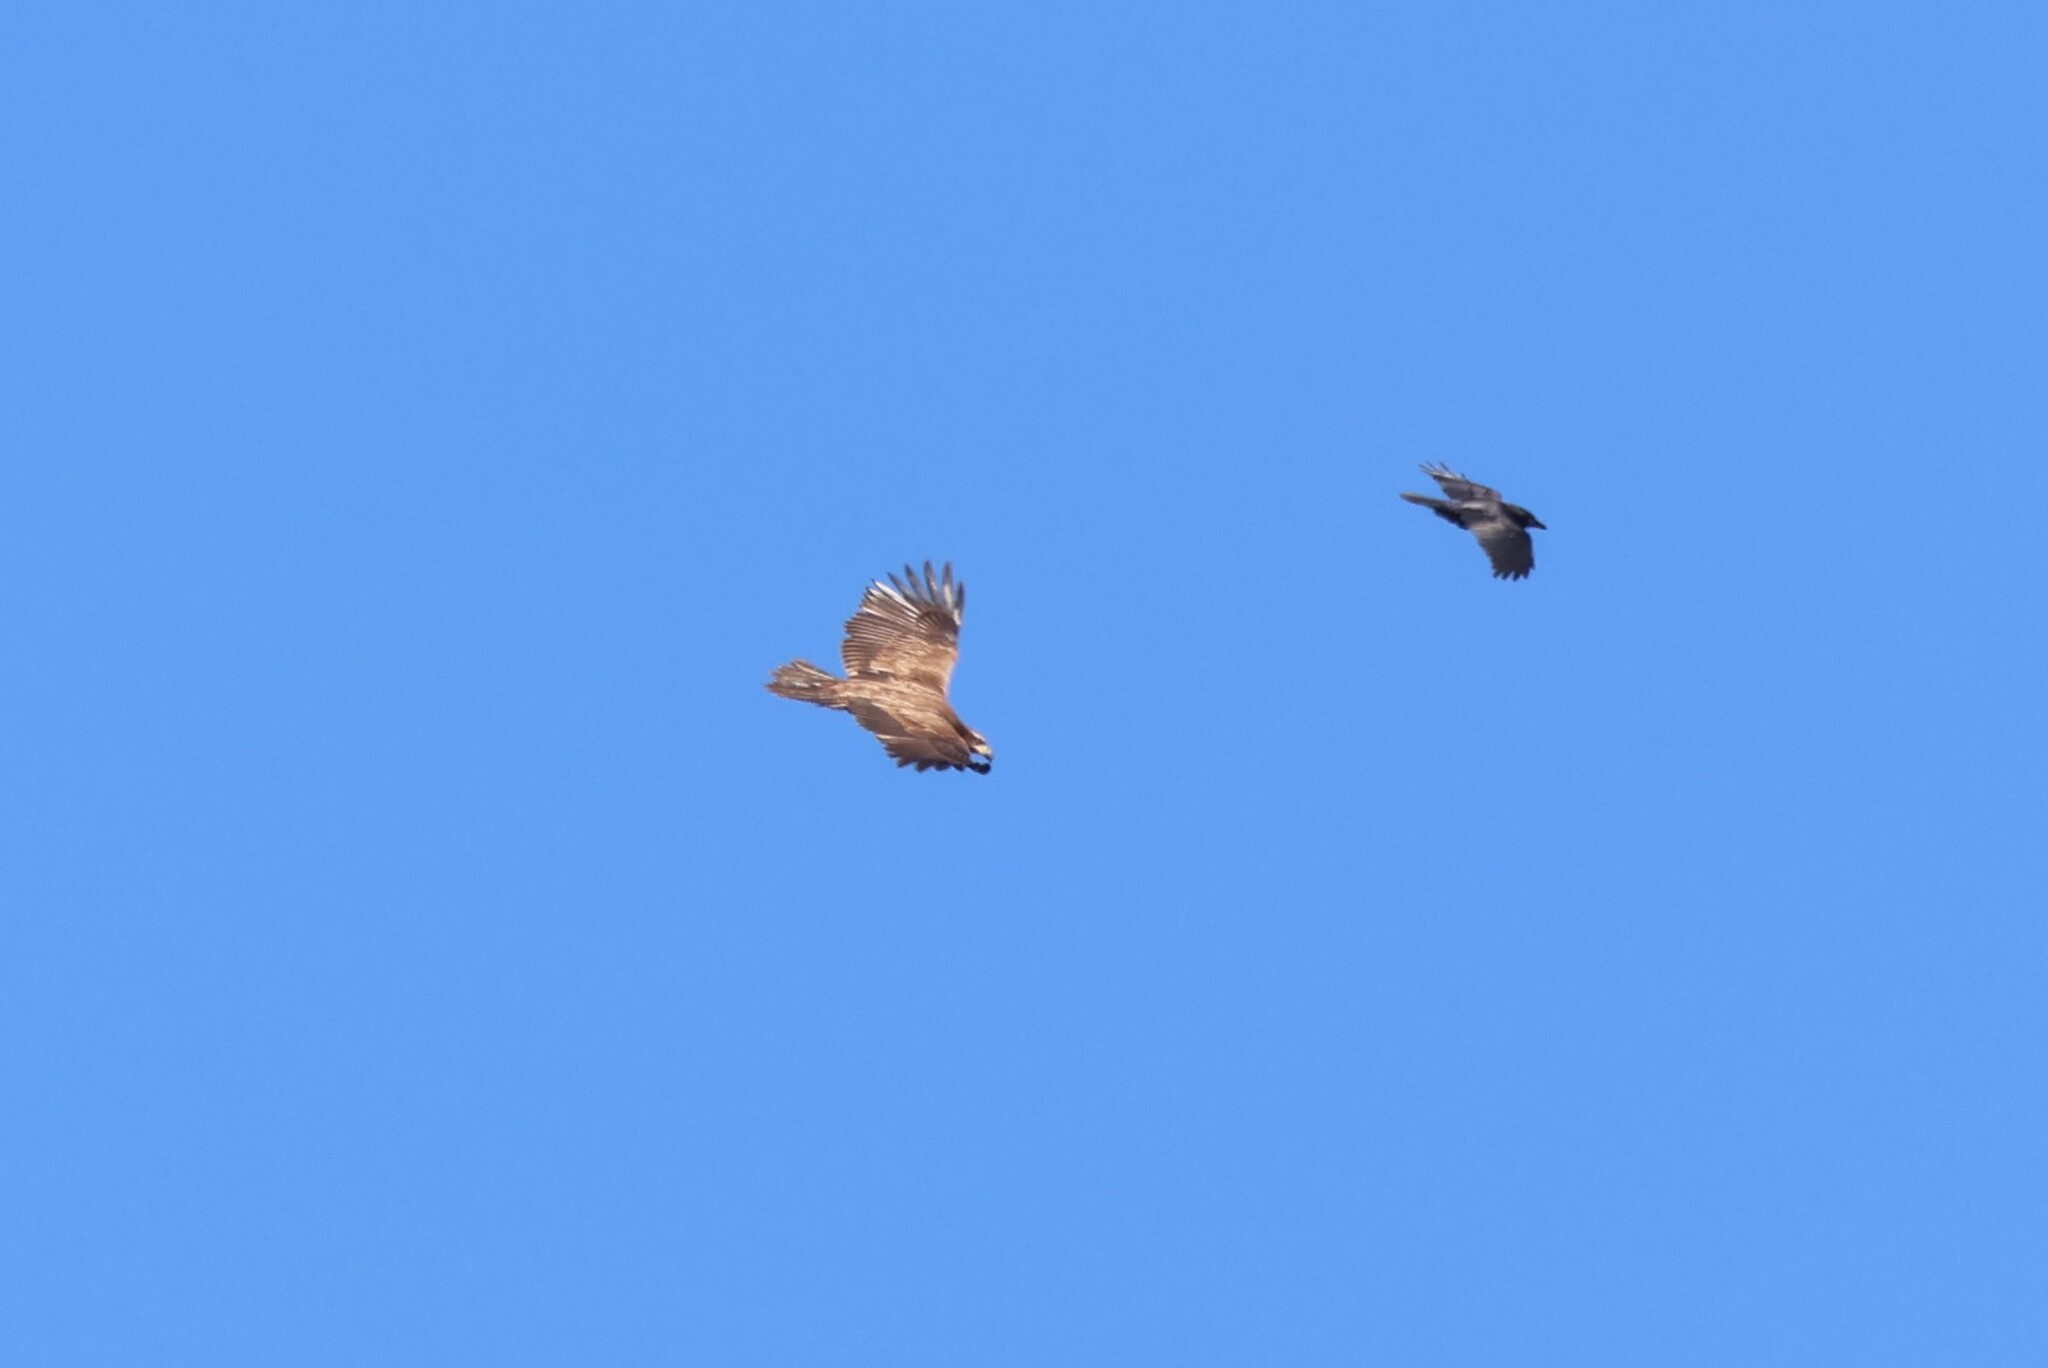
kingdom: Animalia
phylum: Chordata
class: Aves
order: Accipitriformes
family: Accipitridae
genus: Haliaeetus
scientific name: Haliaeetus leucocephalus
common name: Bald eagle
